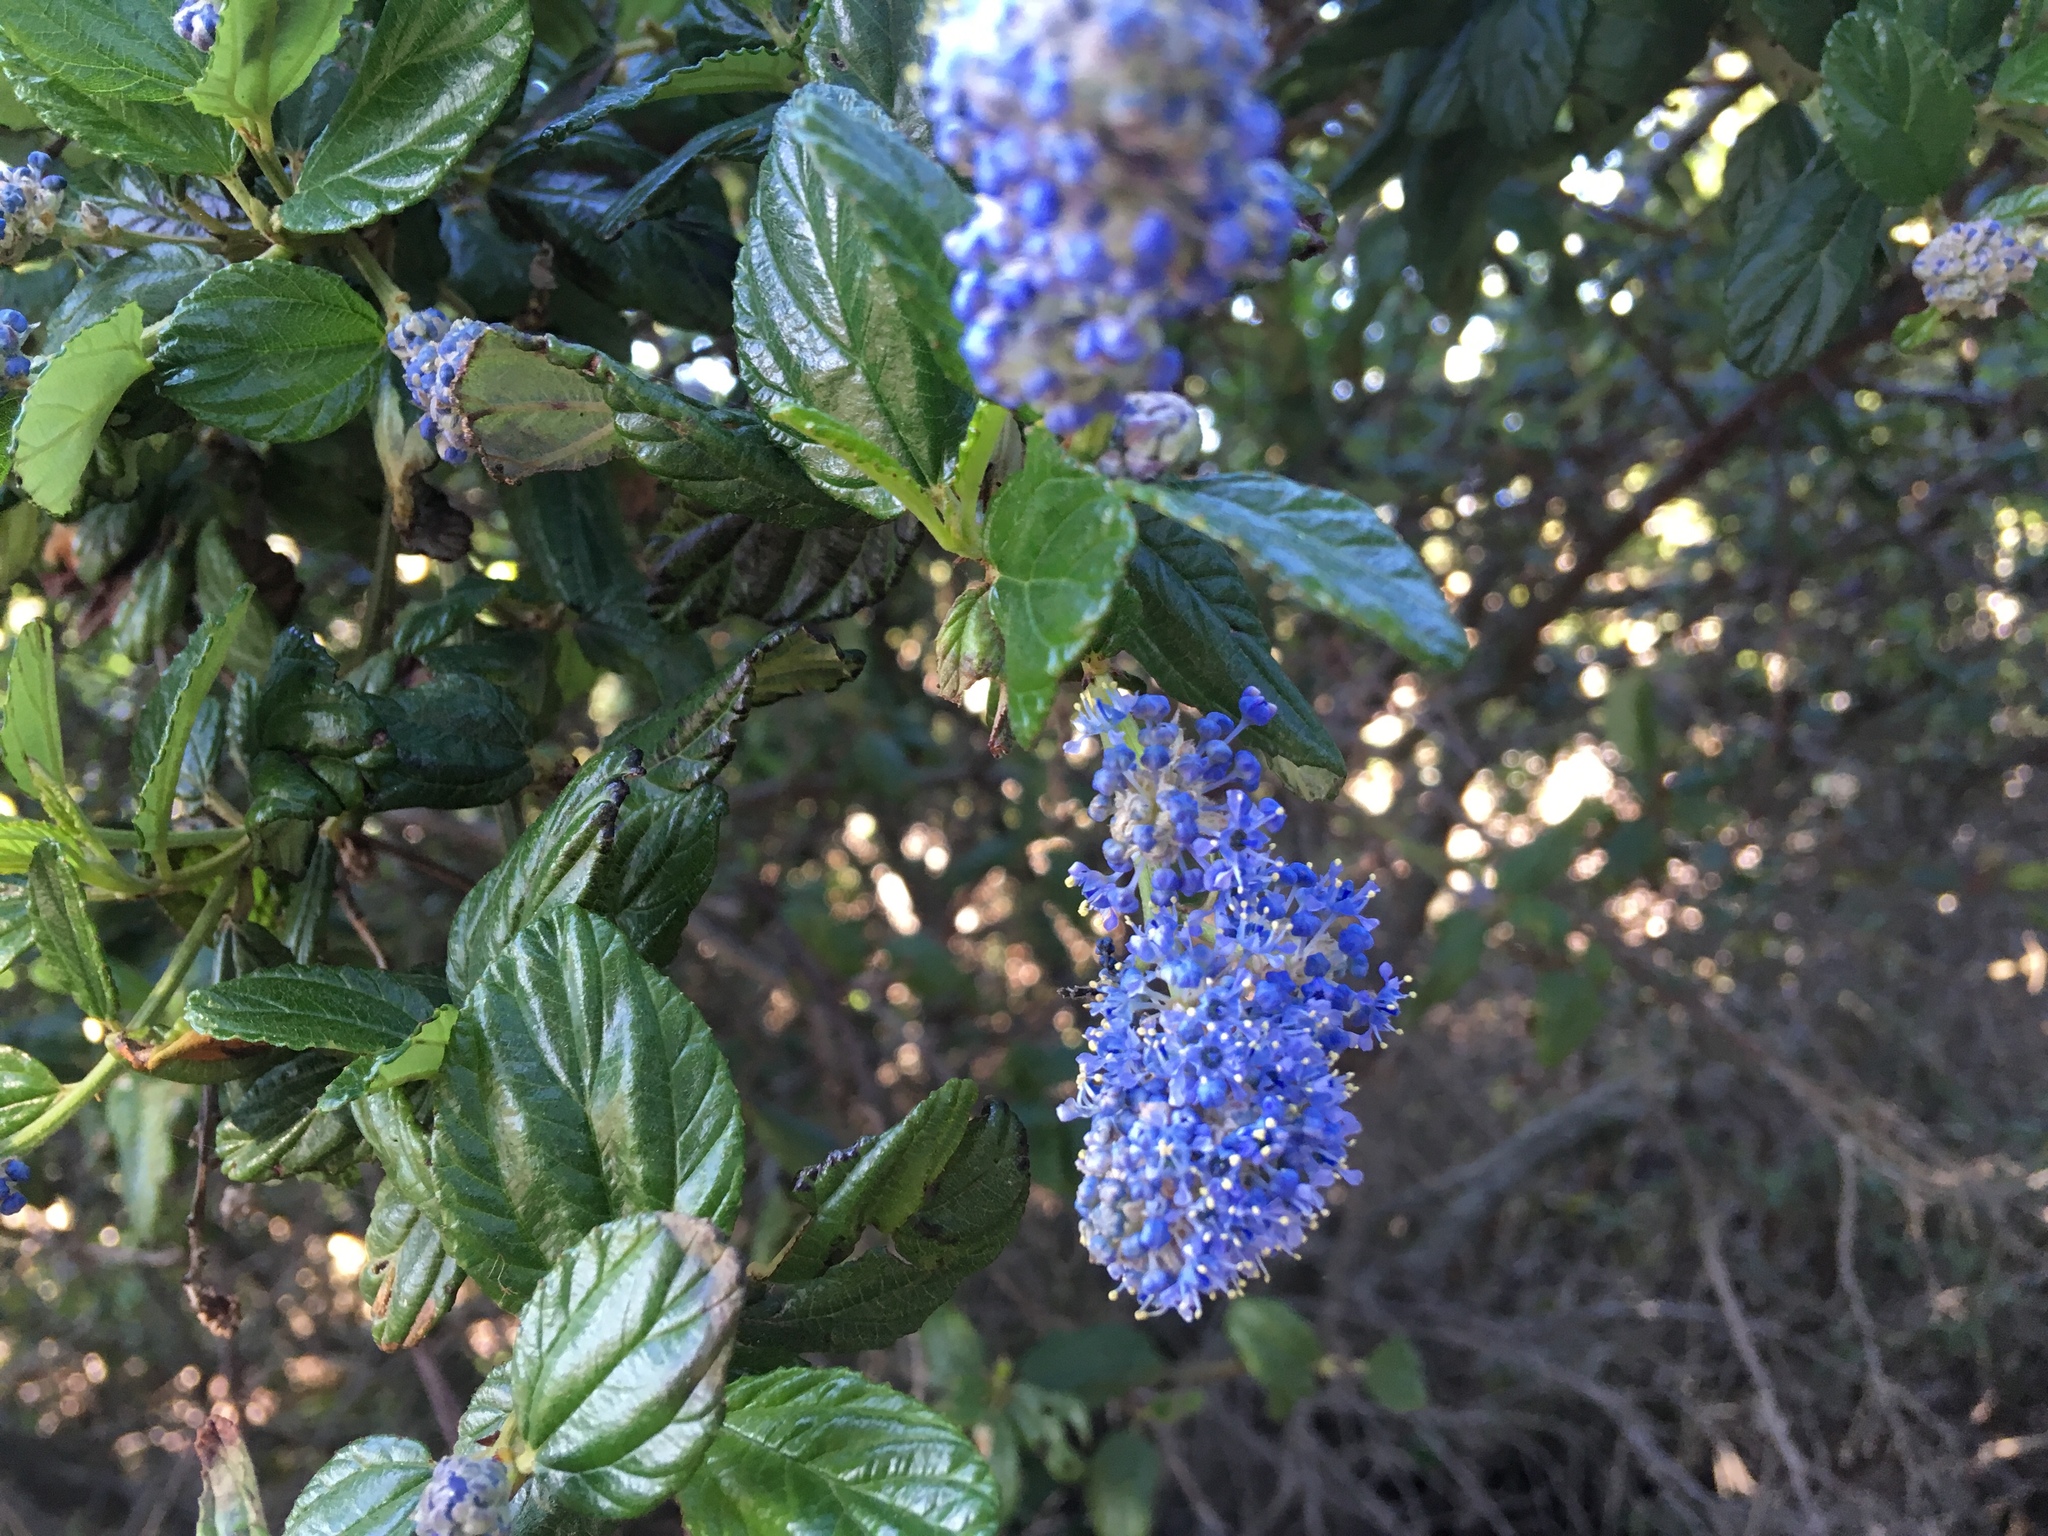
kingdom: Plantae
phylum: Tracheophyta
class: Magnoliopsida
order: Rosales
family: Rhamnaceae
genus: Ceanothus
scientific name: Ceanothus griseus
